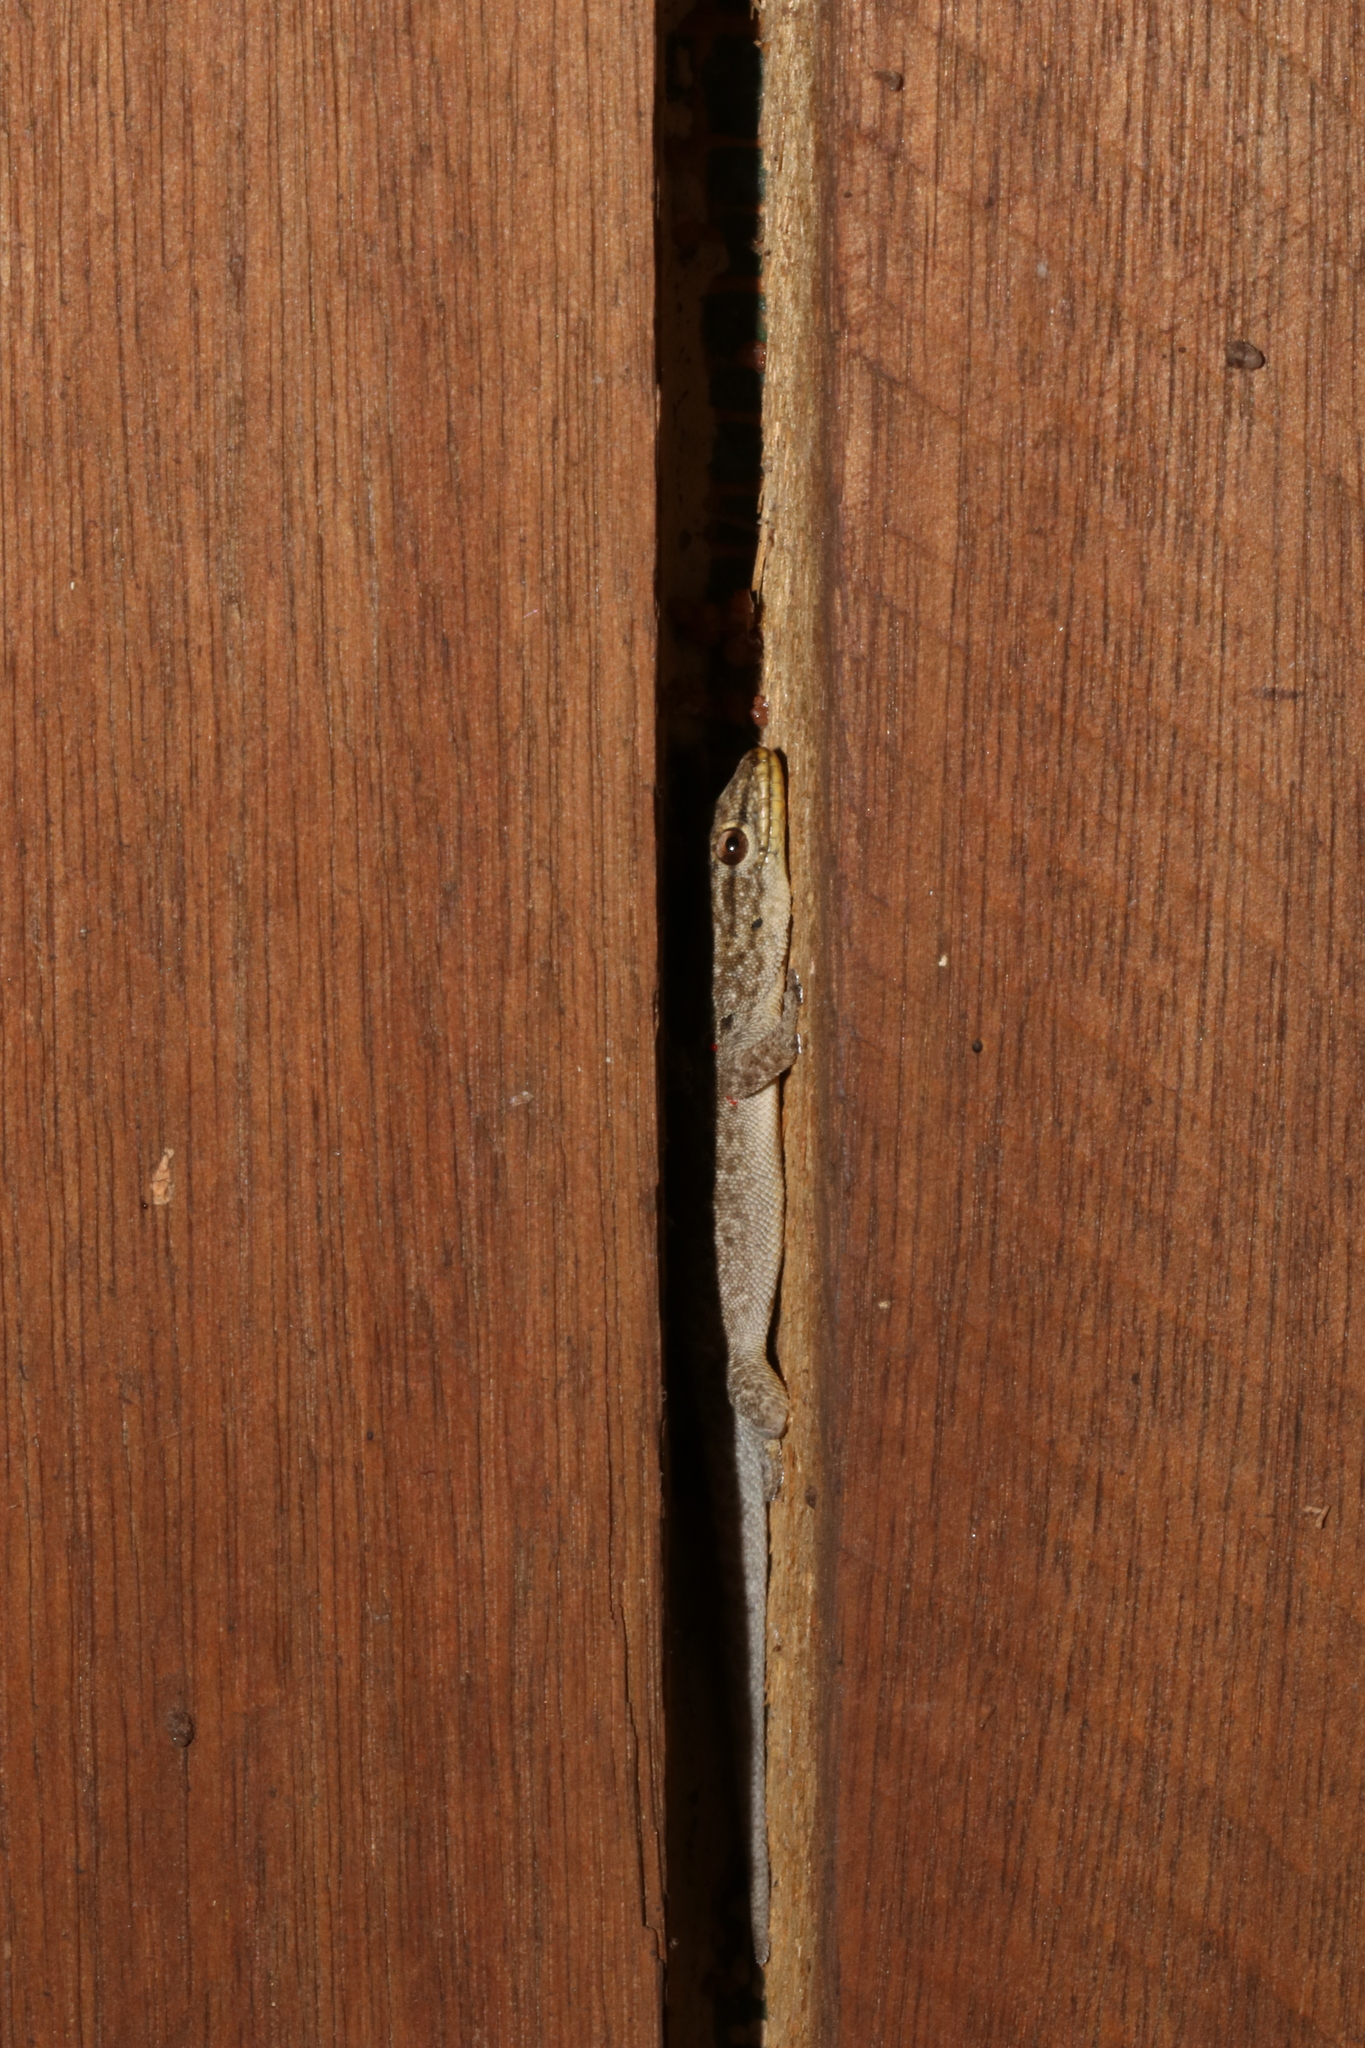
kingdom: Animalia
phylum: Chordata
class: Squamata
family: Gekkonidae
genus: Lygodactylus
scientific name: Lygodactylus incognitus
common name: Cryptic dwarf gecko
